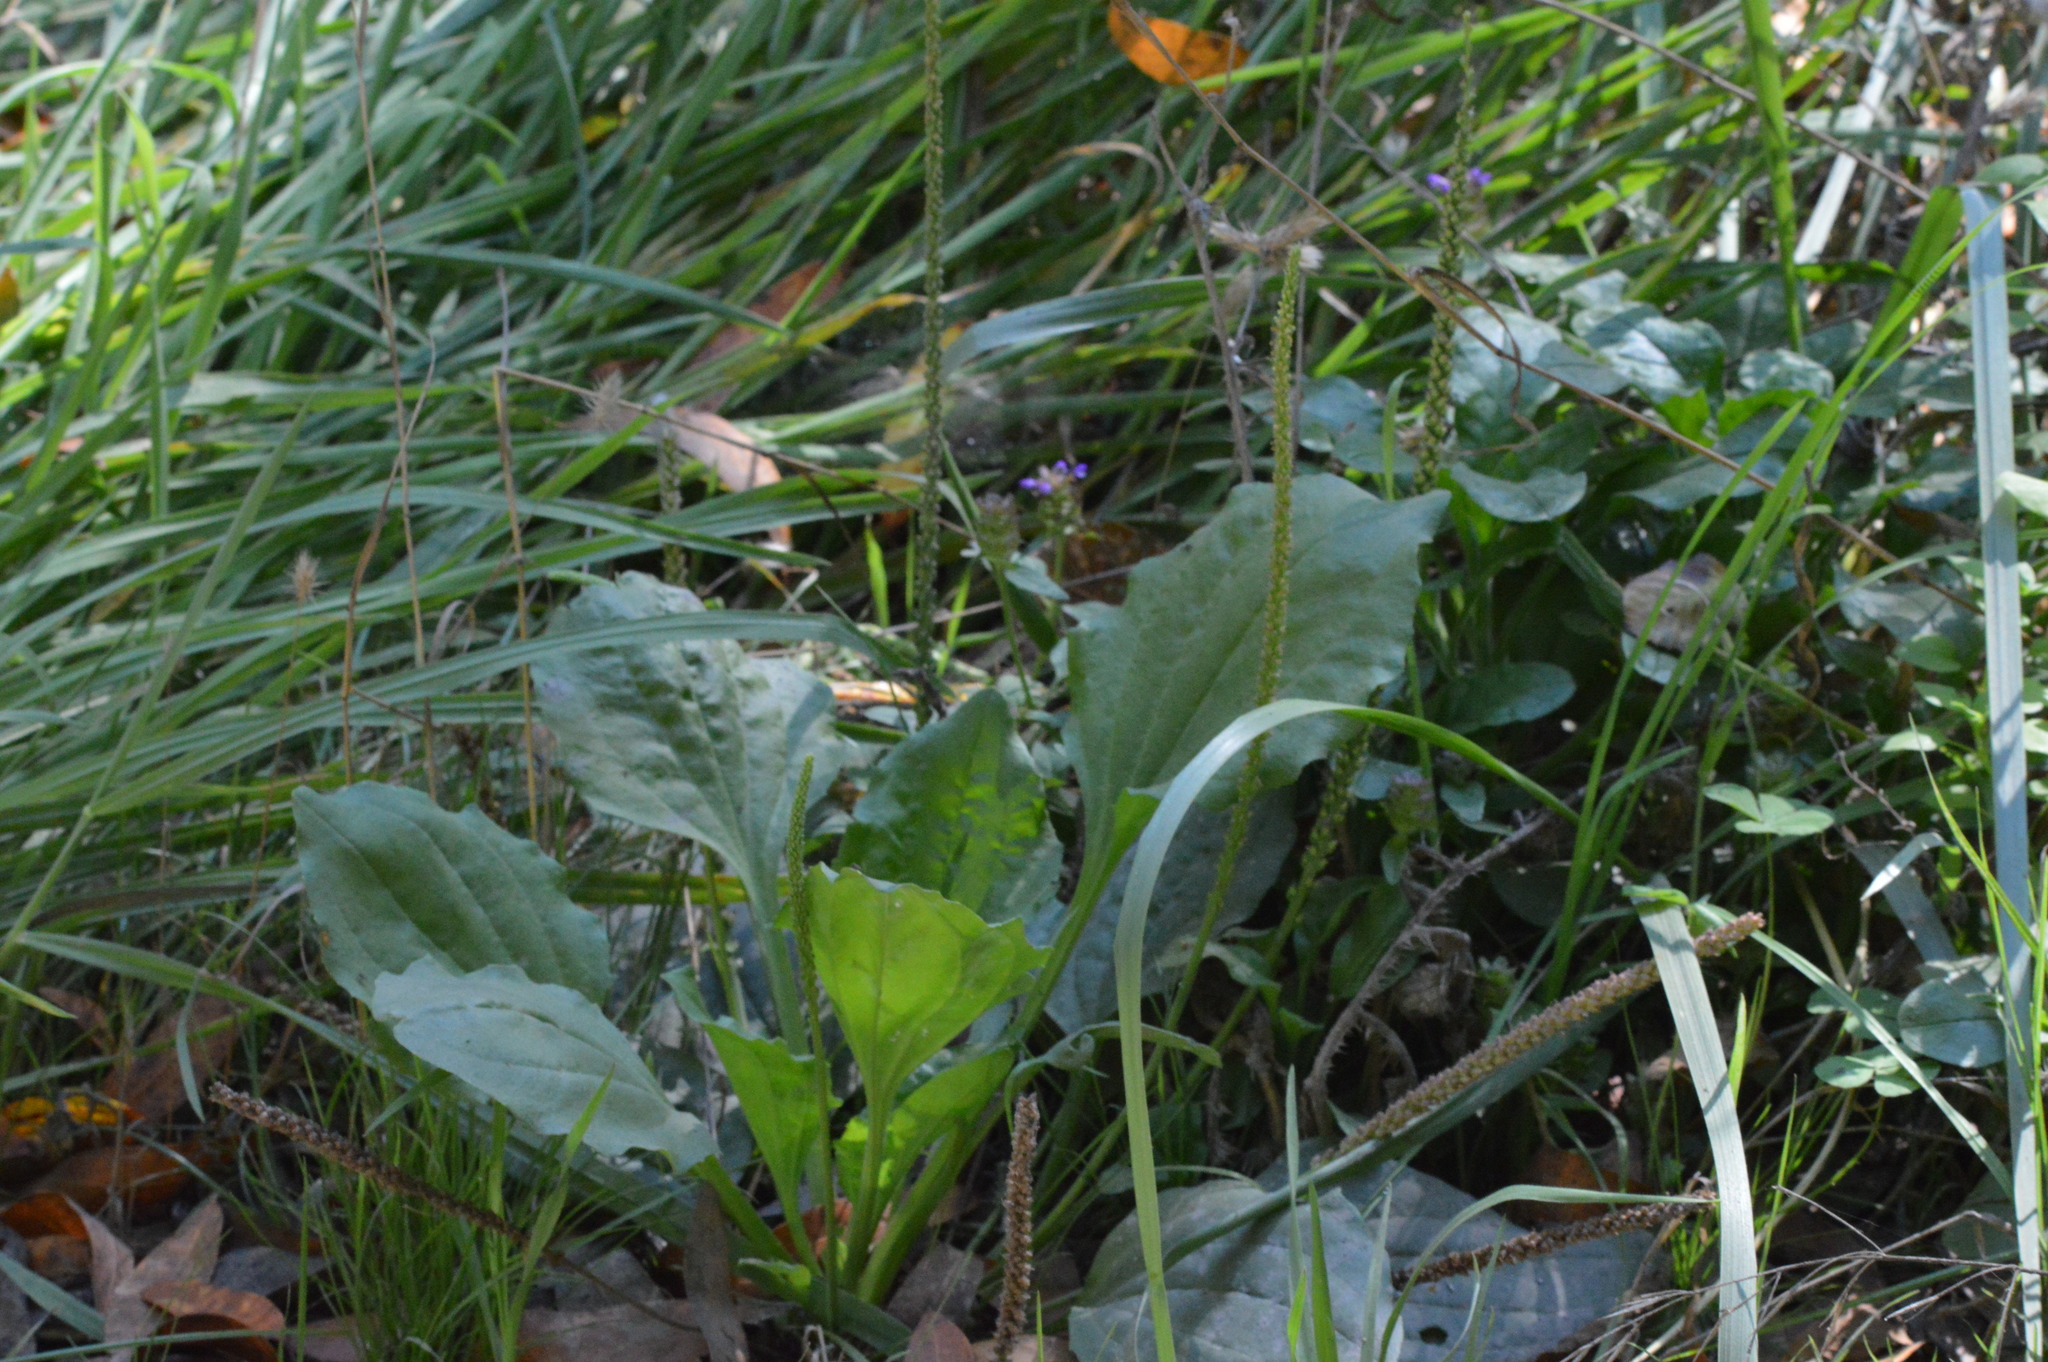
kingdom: Plantae
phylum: Tracheophyta
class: Magnoliopsida
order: Lamiales
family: Plantaginaceae
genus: Plantago
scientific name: Plantago major
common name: Common plantain
